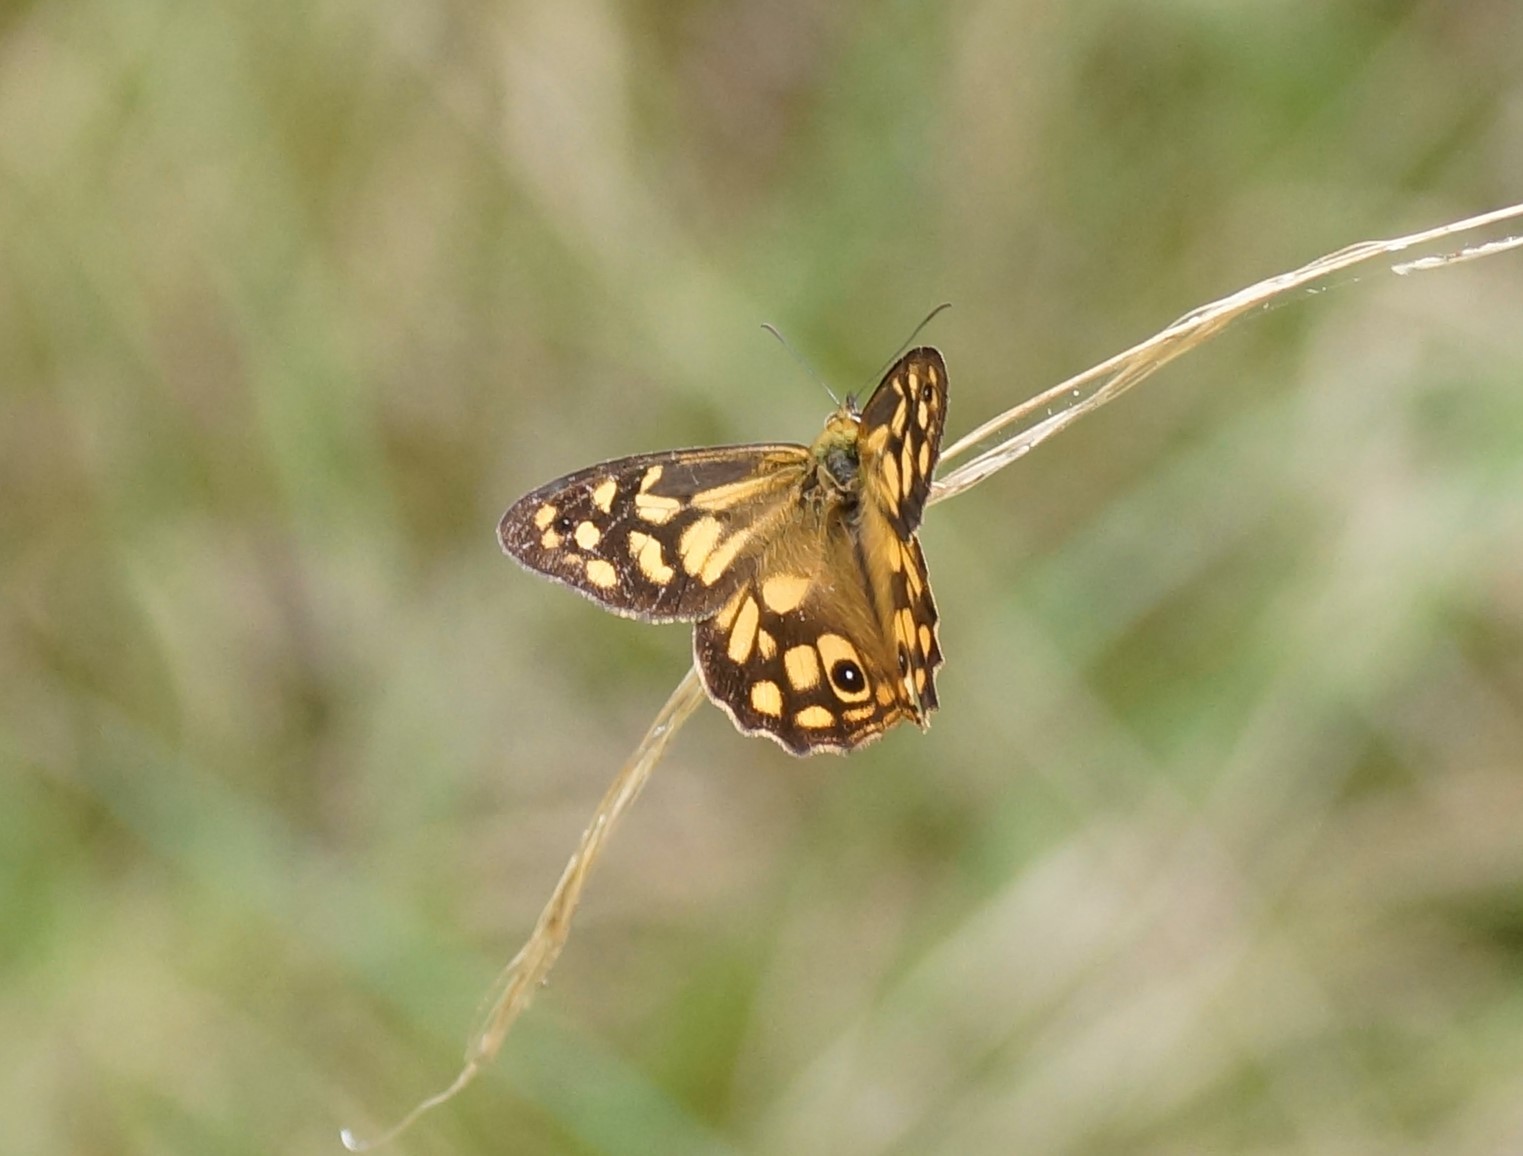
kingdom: Animalia
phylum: Arthropoda
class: Insecta
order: Lepidoptera
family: Nymphalidae
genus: Heteronympha
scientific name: Heteronympha paradelpha
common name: Spotted brown
